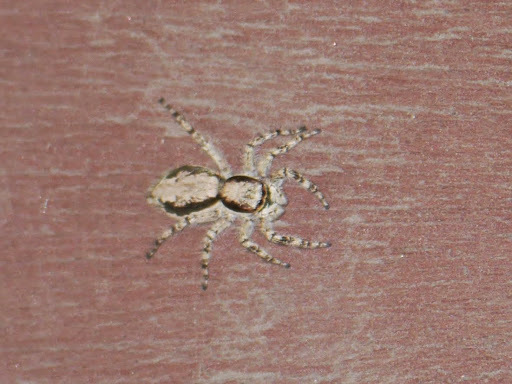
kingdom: Animalia
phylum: Arthropoda
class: Arachnida
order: Araneae
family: Salticidae
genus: Menemerus
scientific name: Menemerus bivittatus
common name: Gray wall jumper
